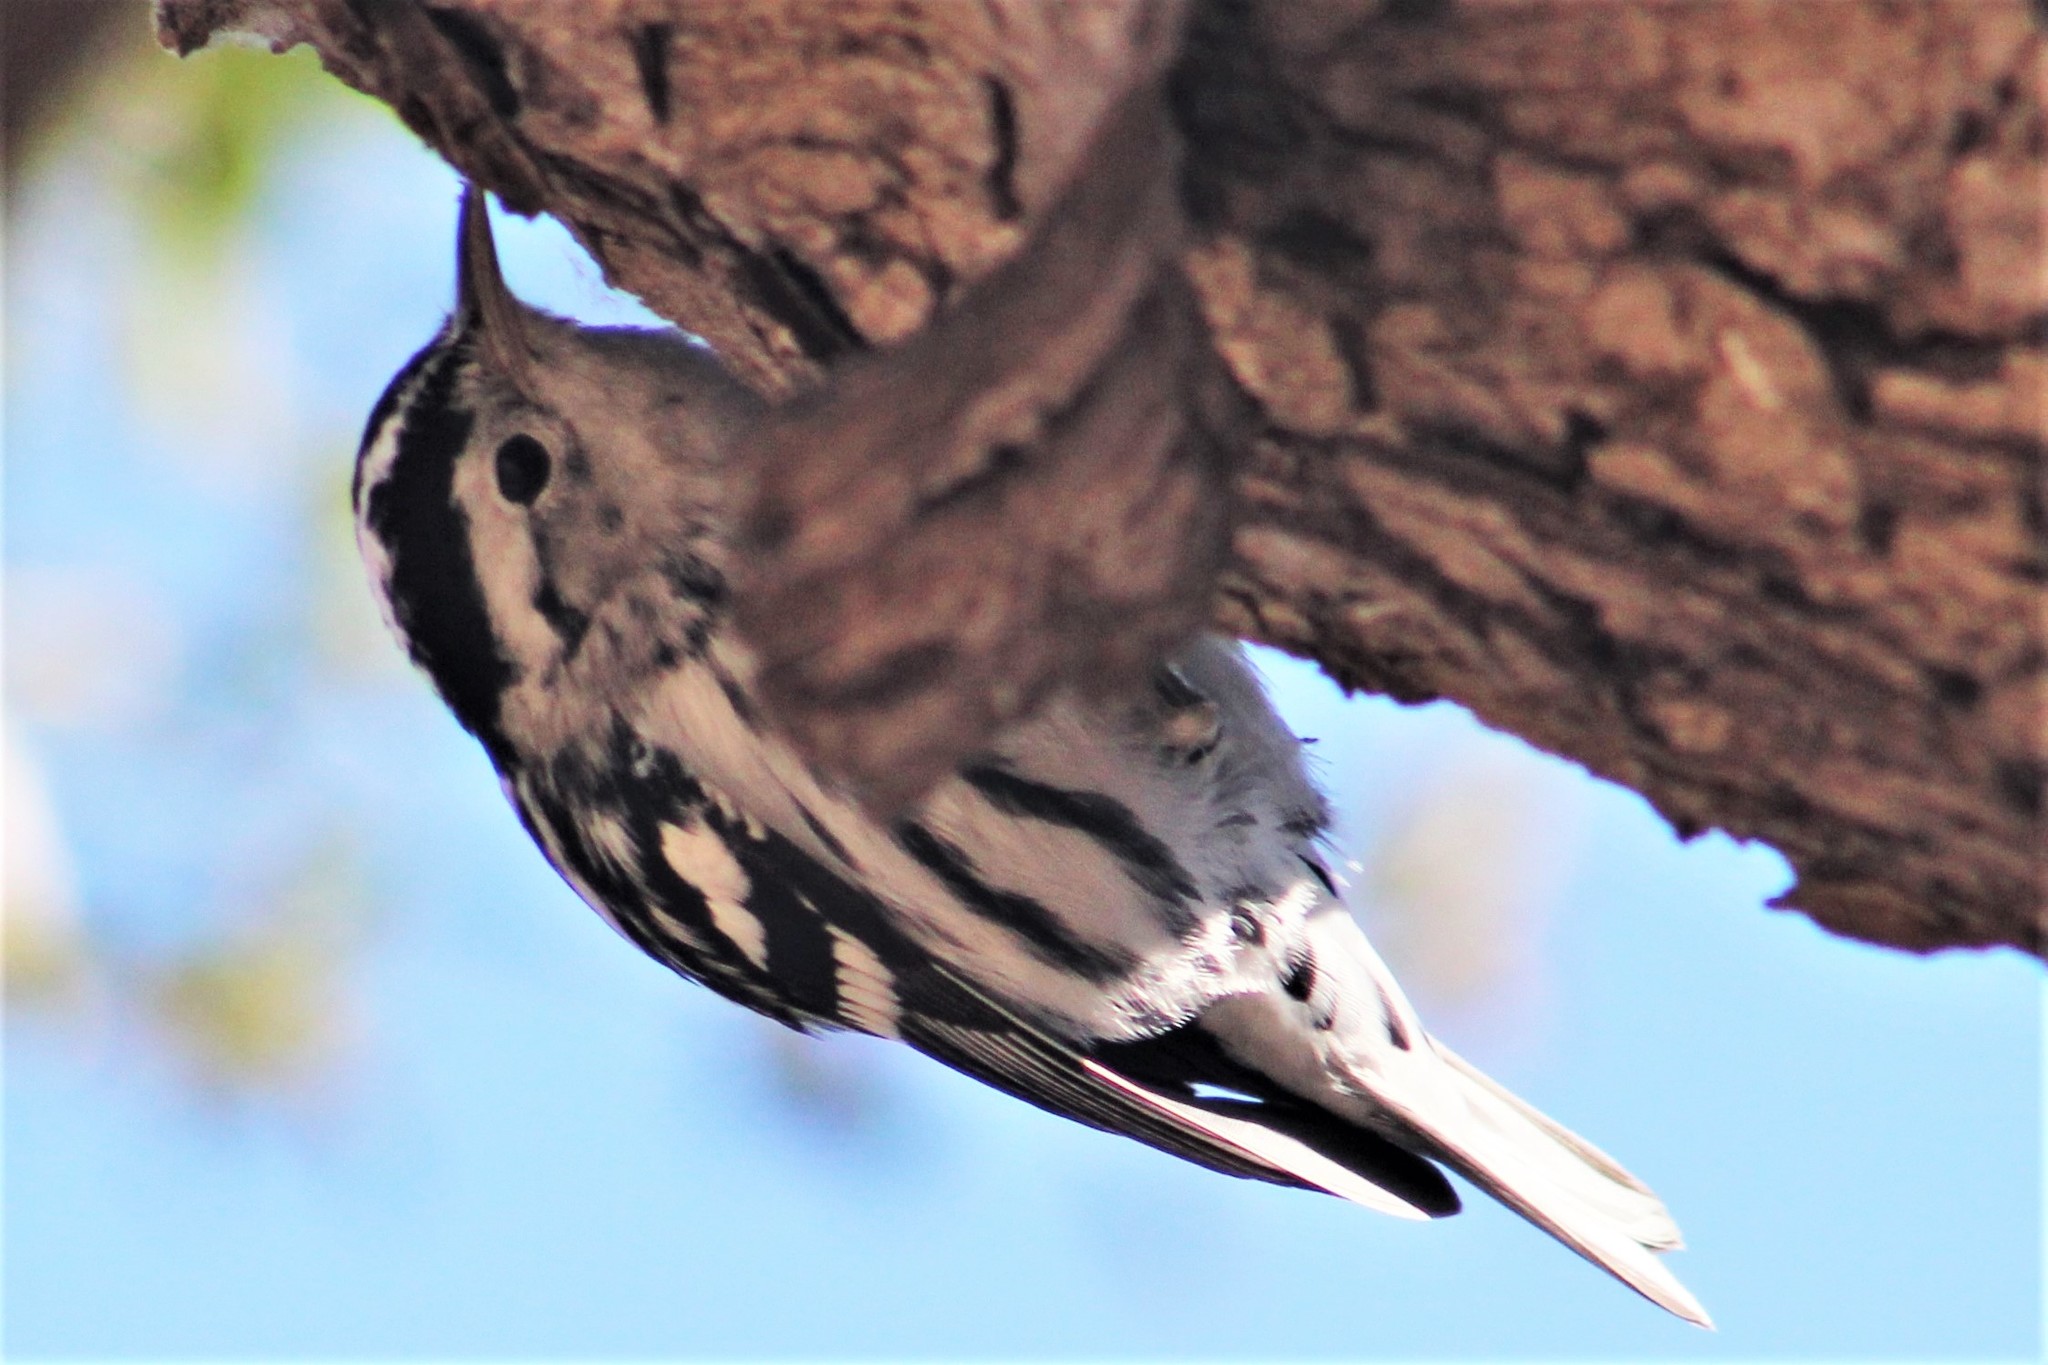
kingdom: Animalia
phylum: Chordata
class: Aves
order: Passeriformes
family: Parulidae
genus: Mniotilta
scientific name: Mniotilta varia
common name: Black-and-white warbler
